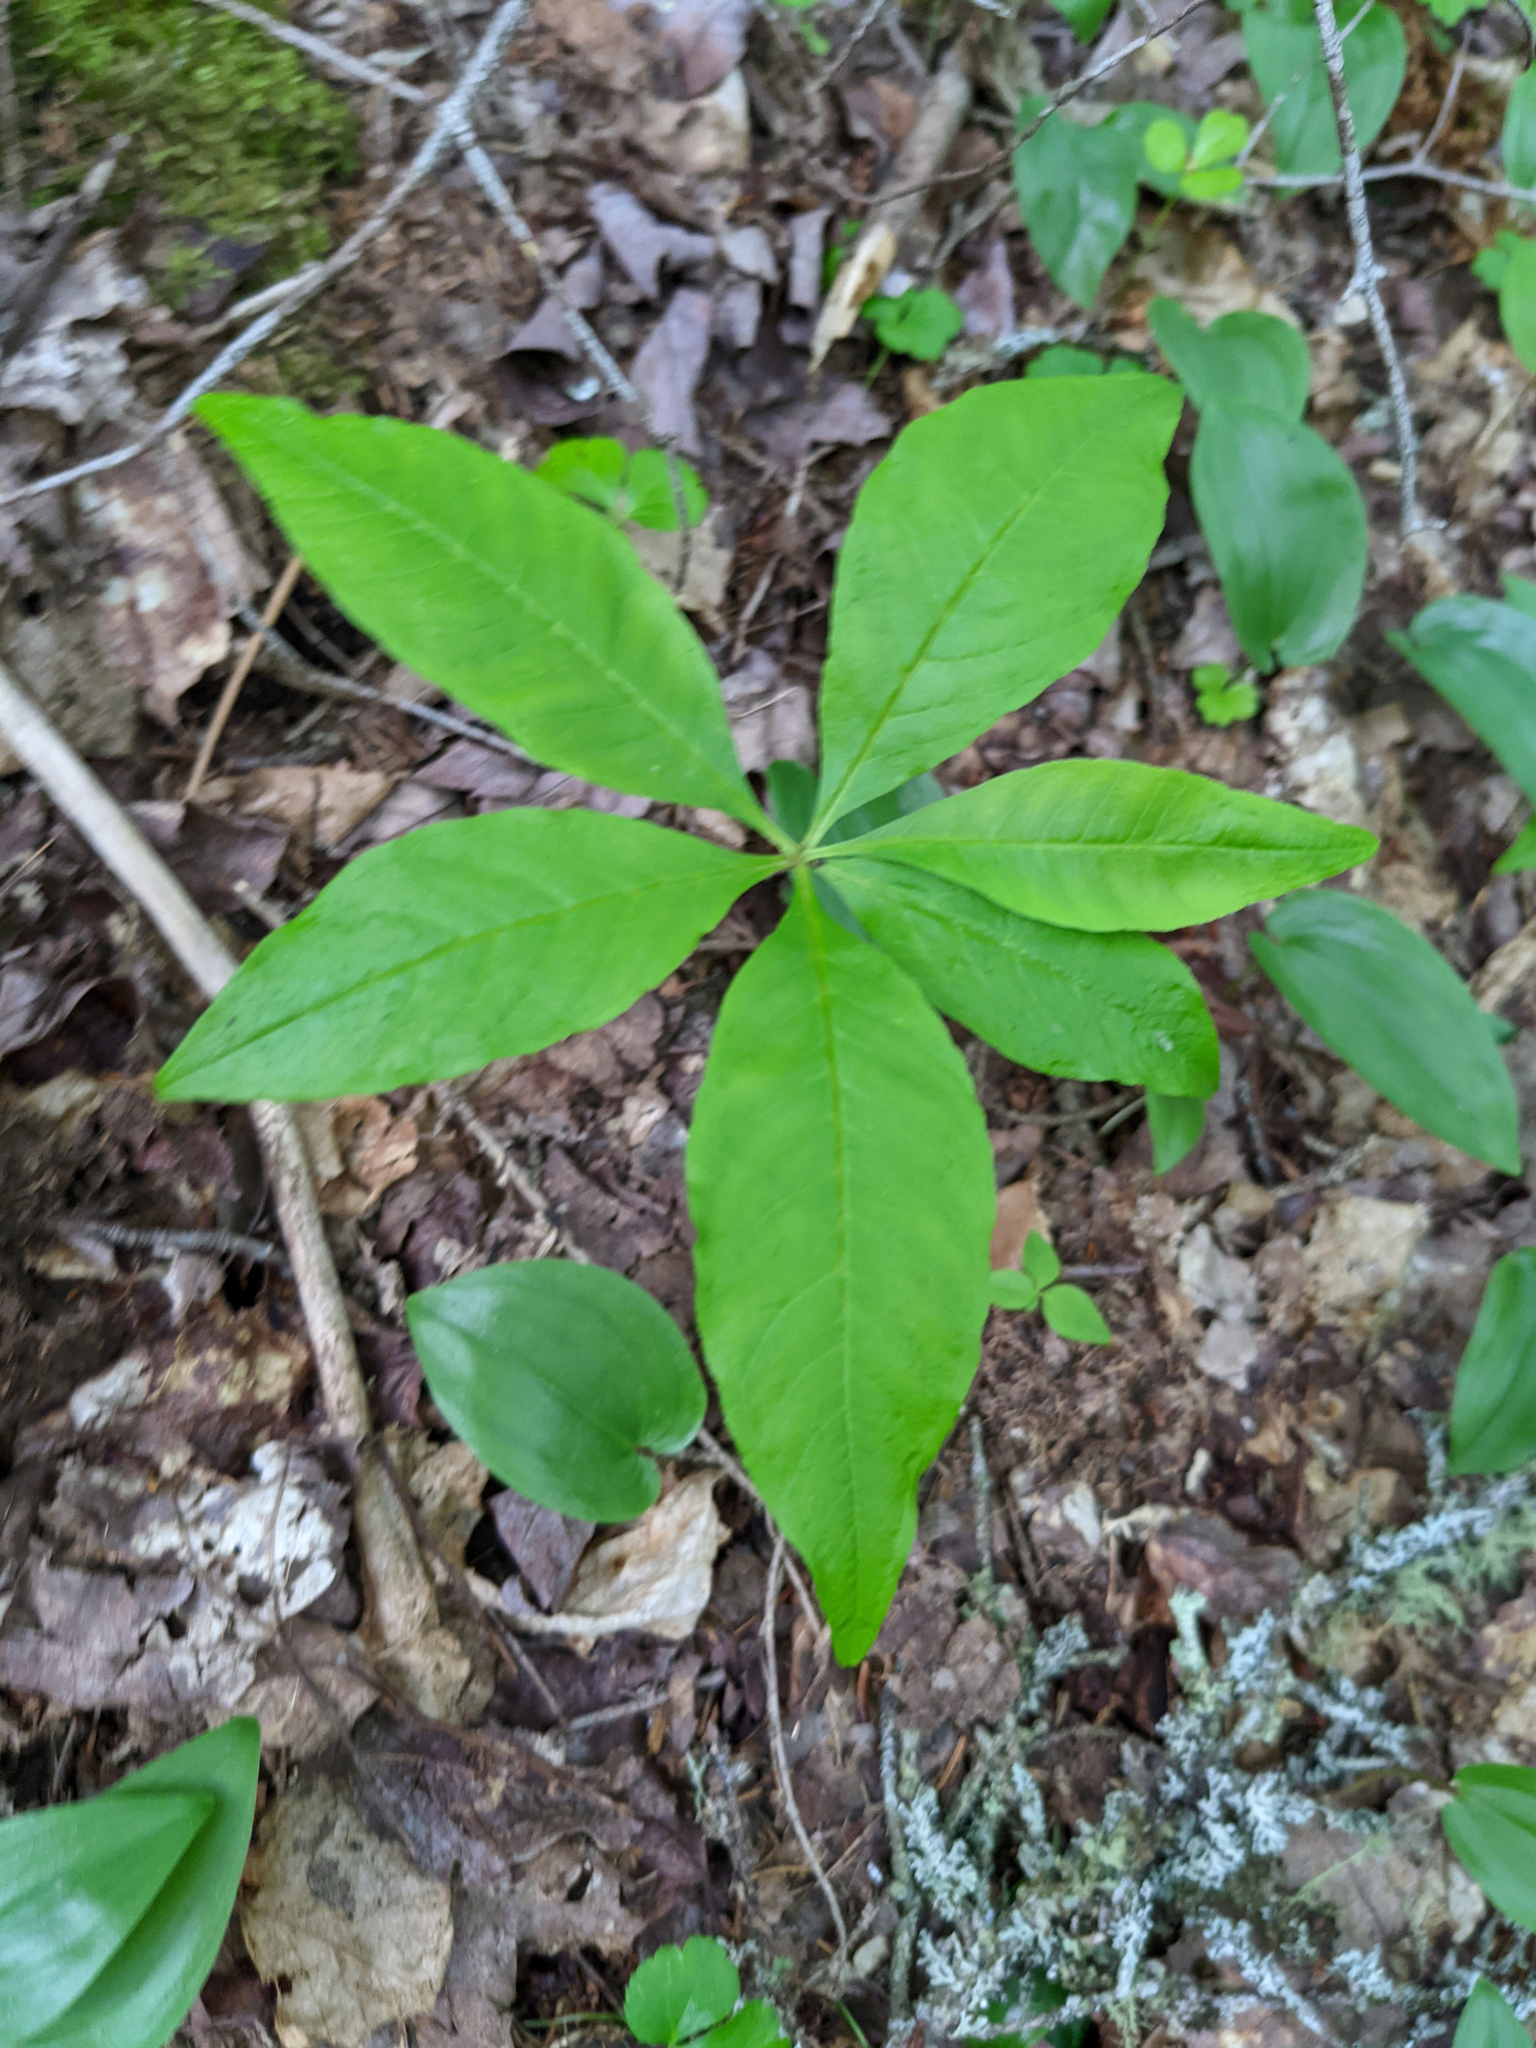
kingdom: Plantae
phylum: Tracheophyta
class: Magnoliopsida
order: Ericales
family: Primulaceae
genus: Lysimachia
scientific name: Lysimachia borealis
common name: American starflower
